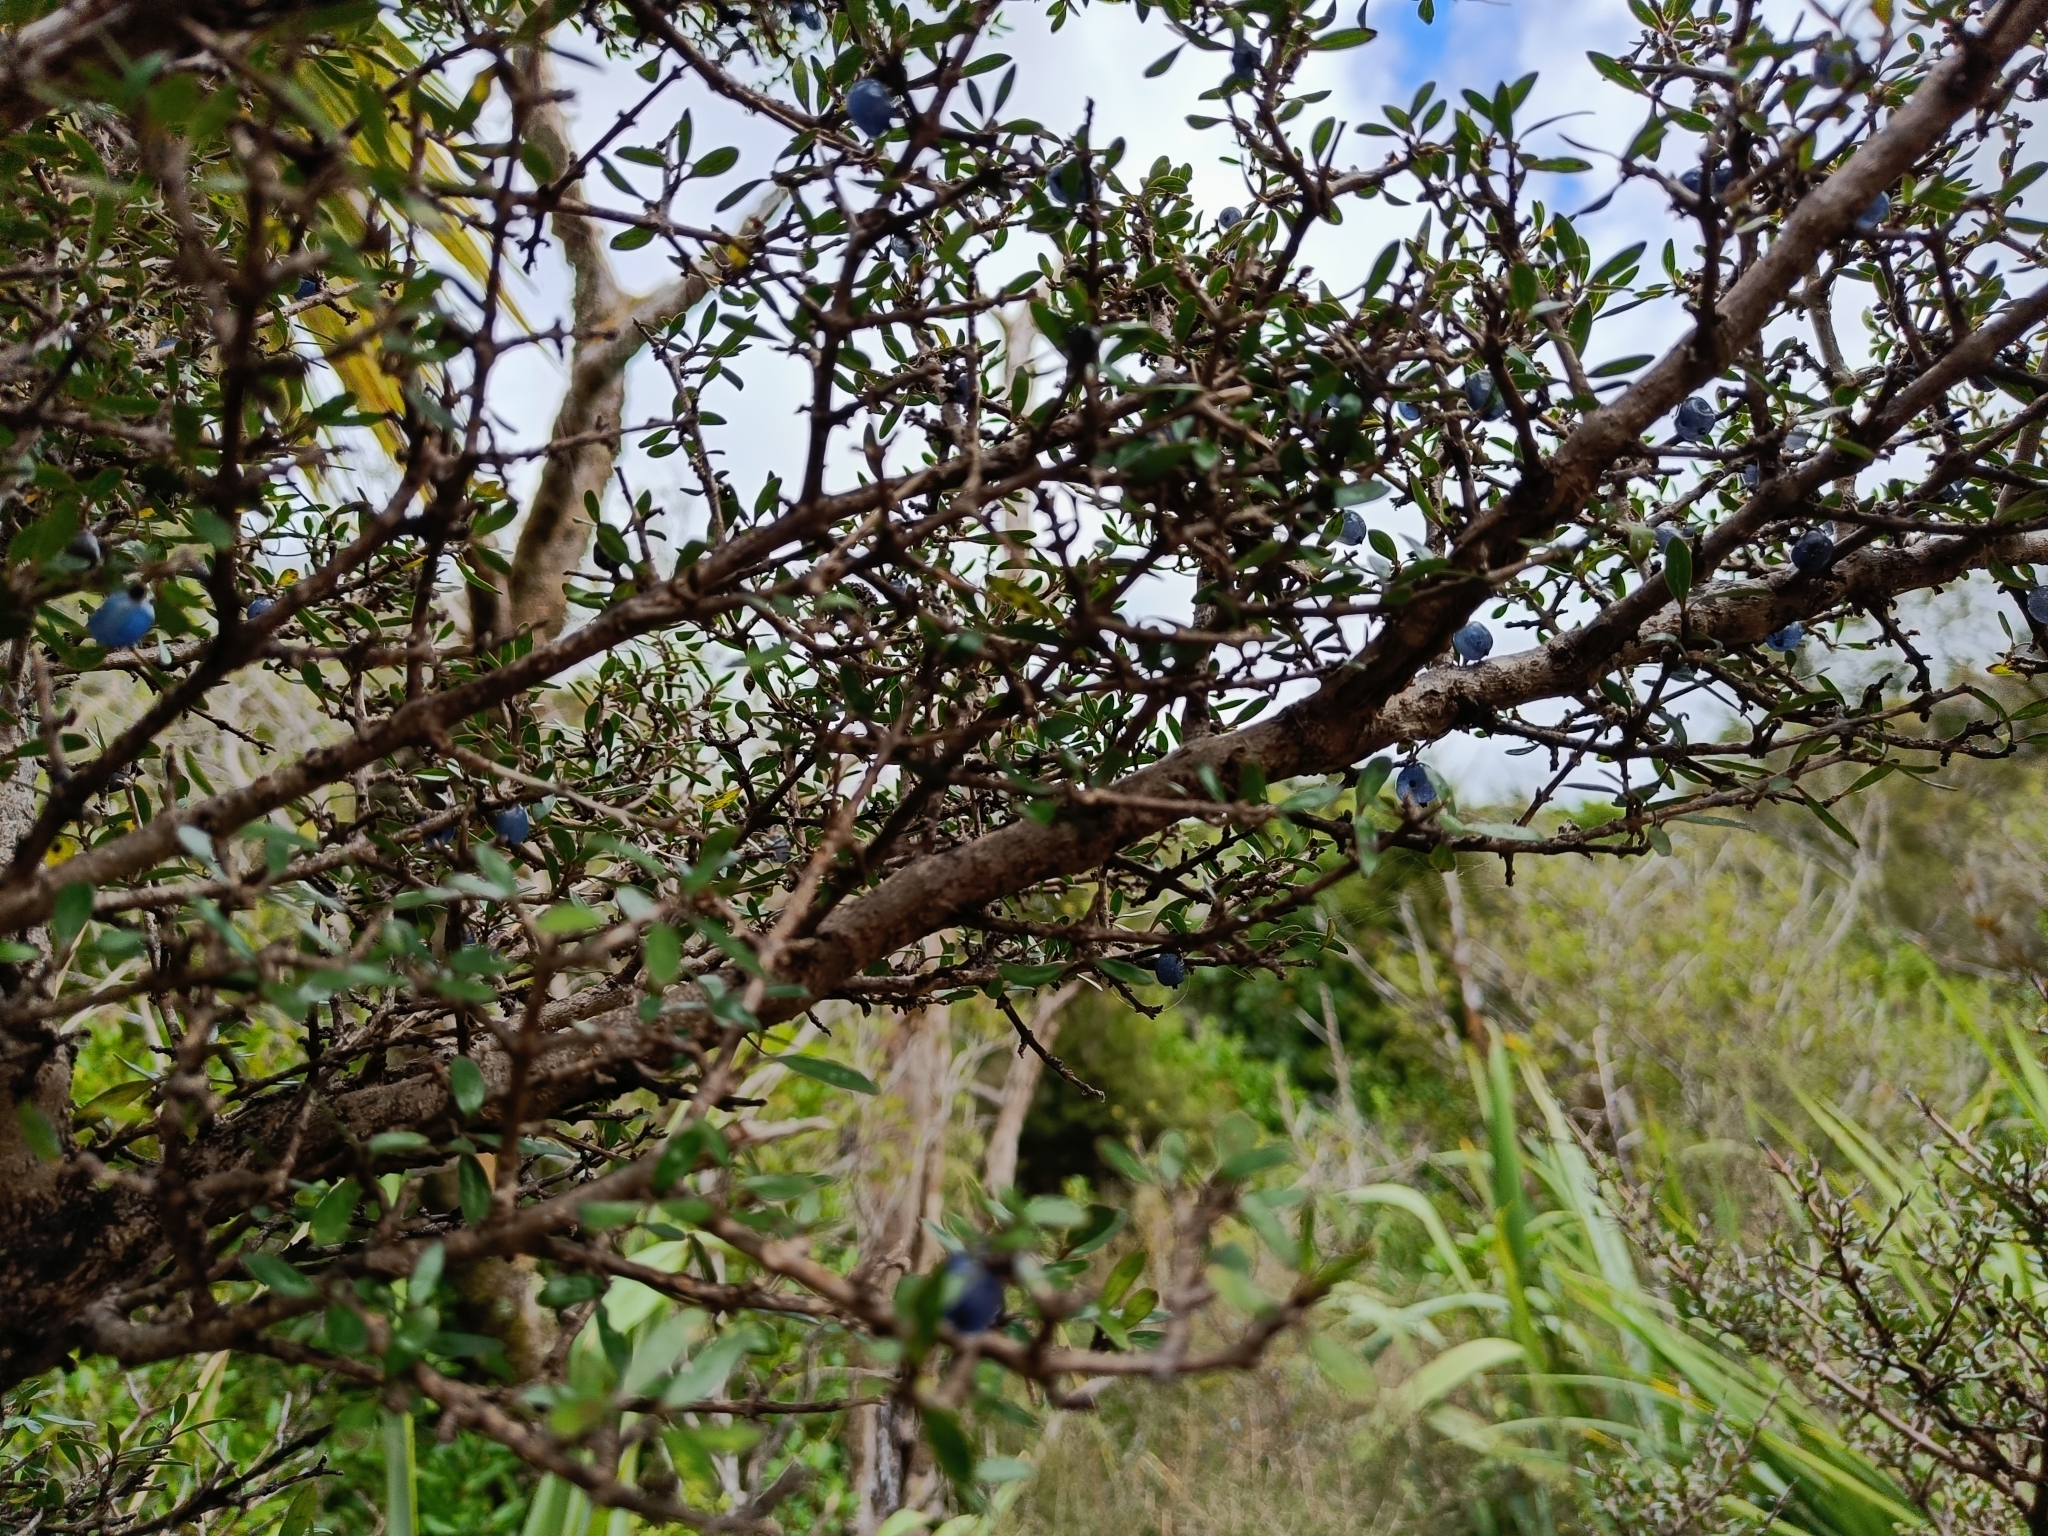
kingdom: Plantae
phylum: Tracheophyta
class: Magnoliopsida
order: Gentianales
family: Rubiaceae
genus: Coprosma
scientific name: Coprosma propinqua
